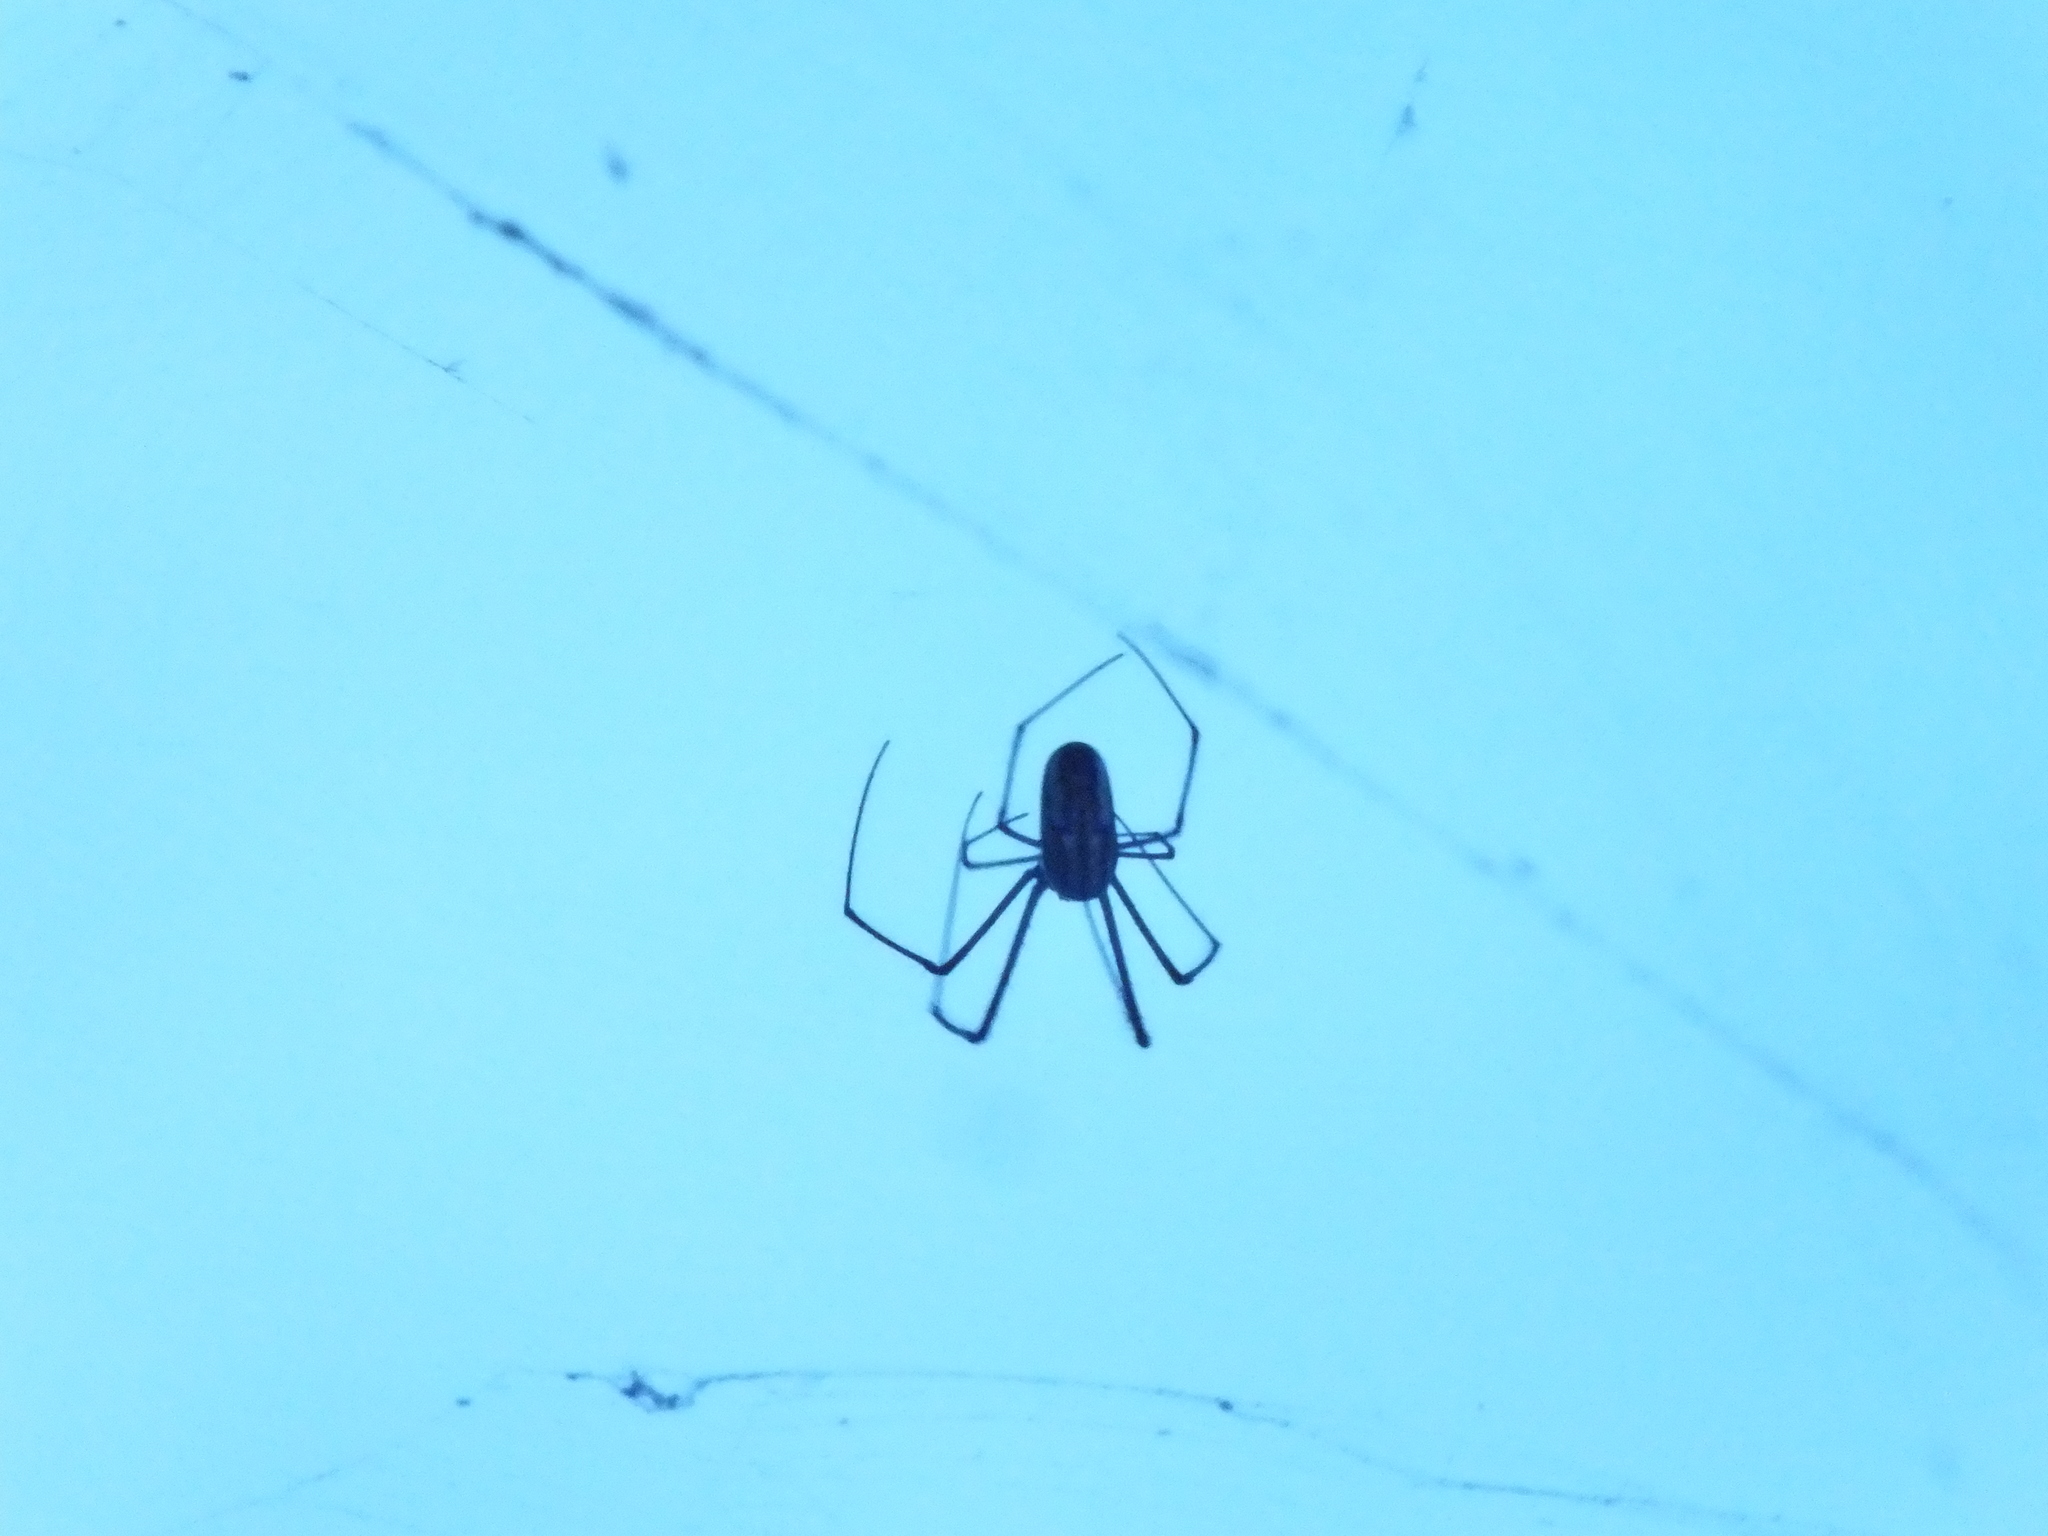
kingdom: Animalia
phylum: Arthropoda
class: Arachnida
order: Araneae
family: Tetragnathidae
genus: Leucauge
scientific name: Leucauge argyra
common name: Longjawed orb weavers
